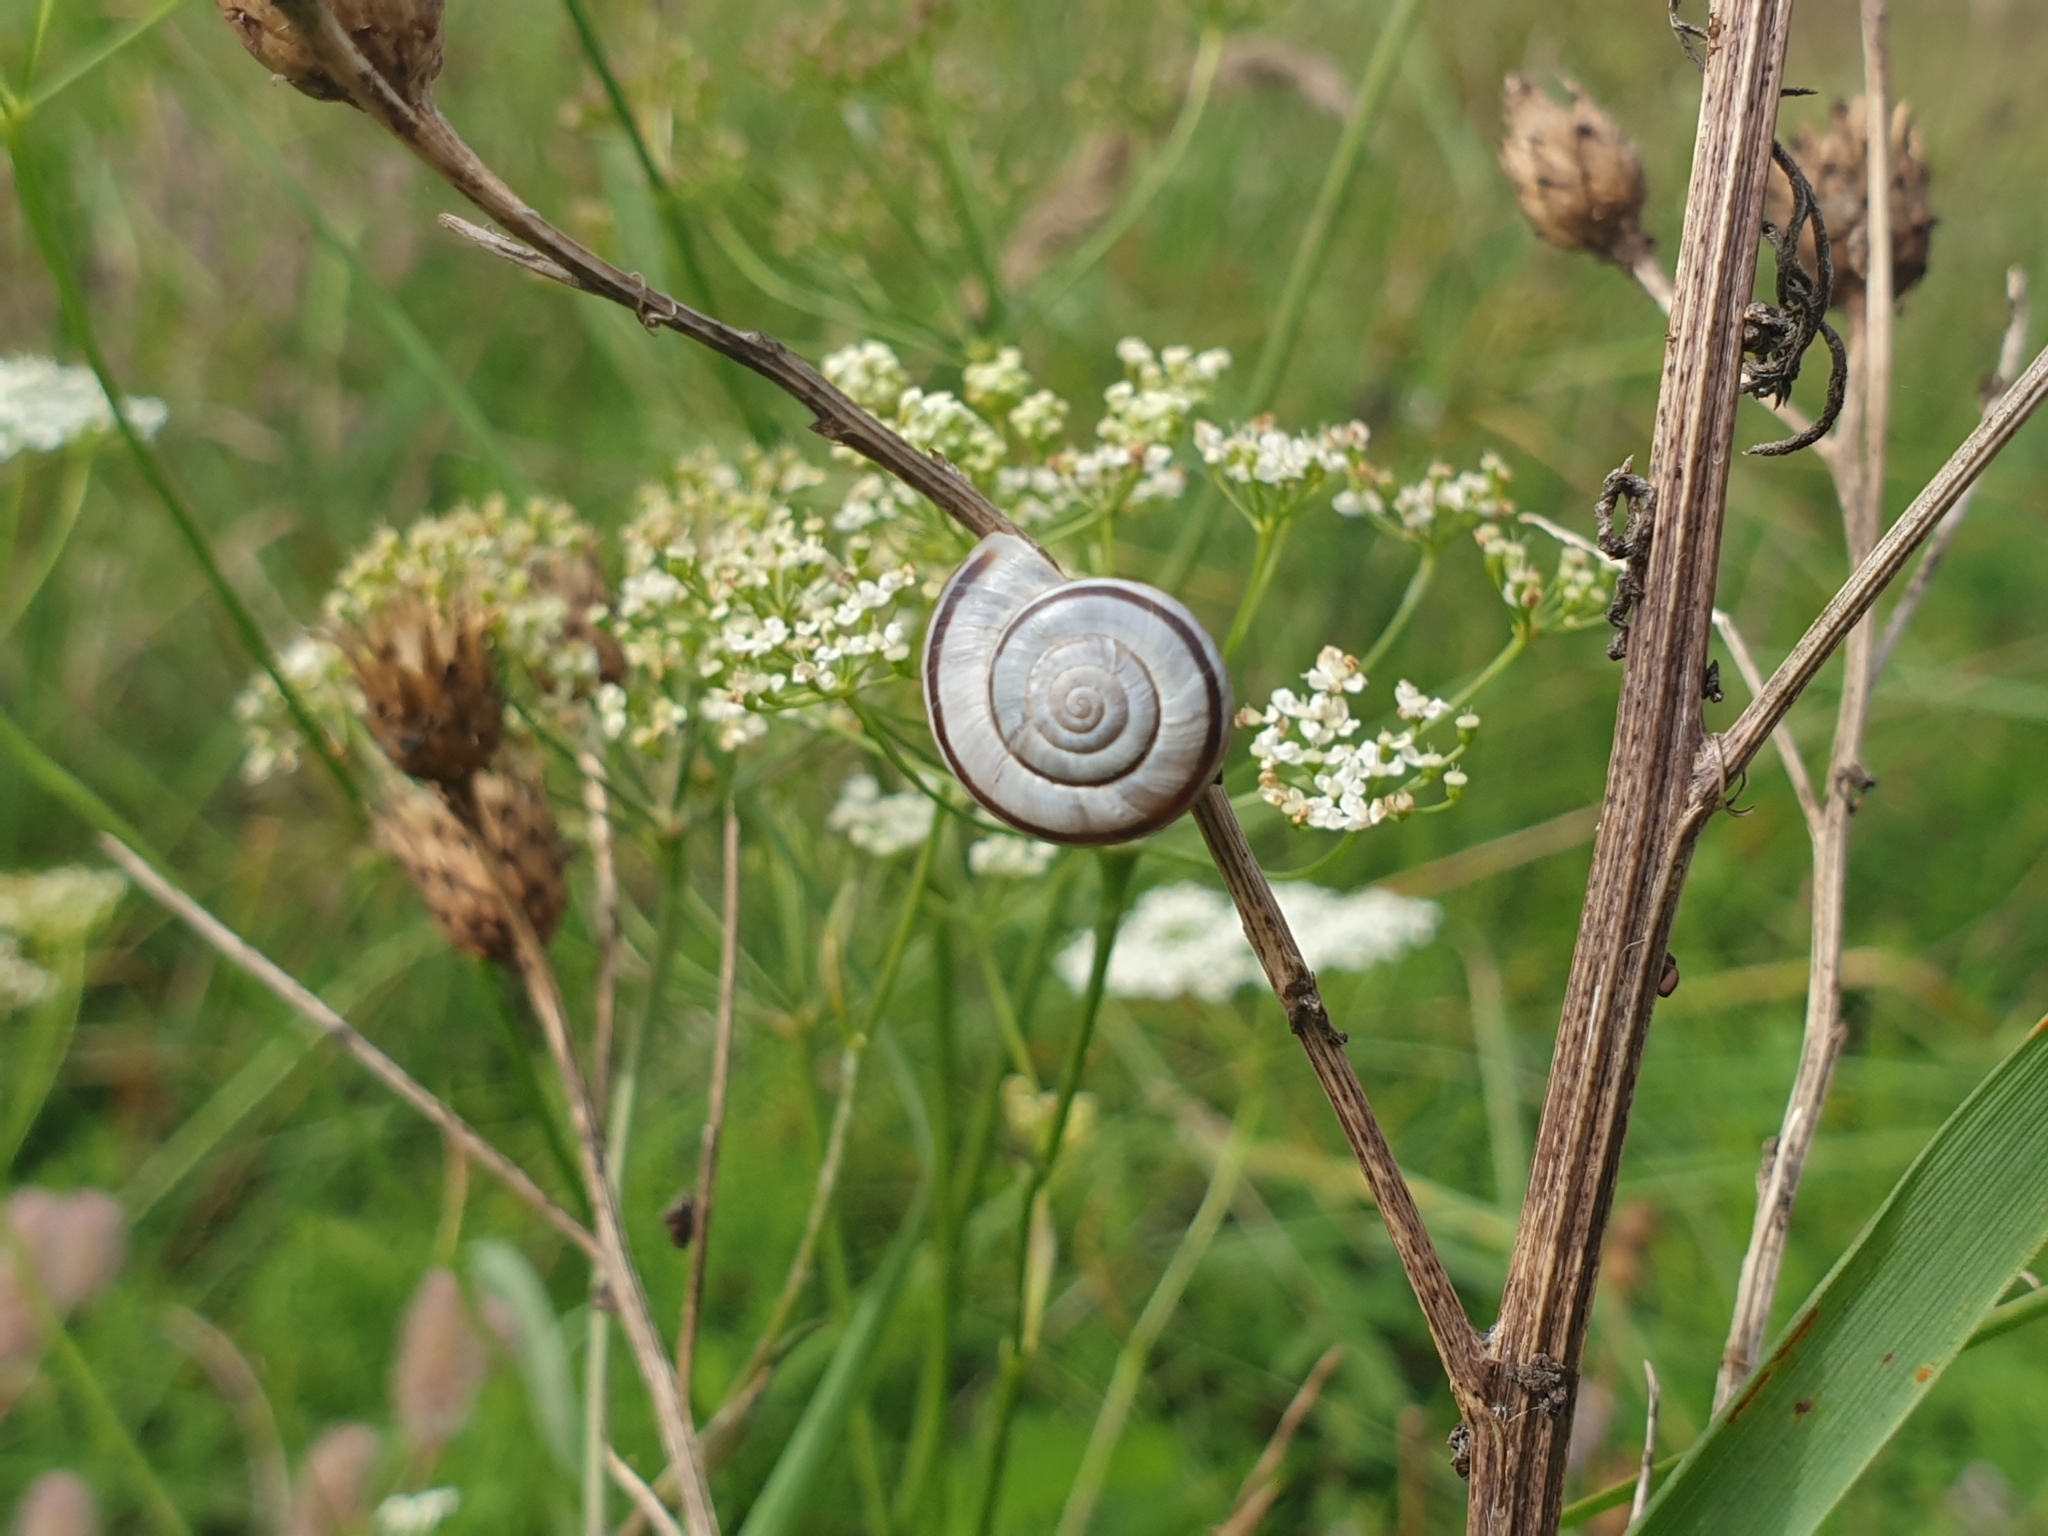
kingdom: Animalia
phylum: Mollusca
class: Gastropoda
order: Stylommatophora
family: Geomitridae
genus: Xerolenta
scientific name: Xerolenta obvia
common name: White heath snail
